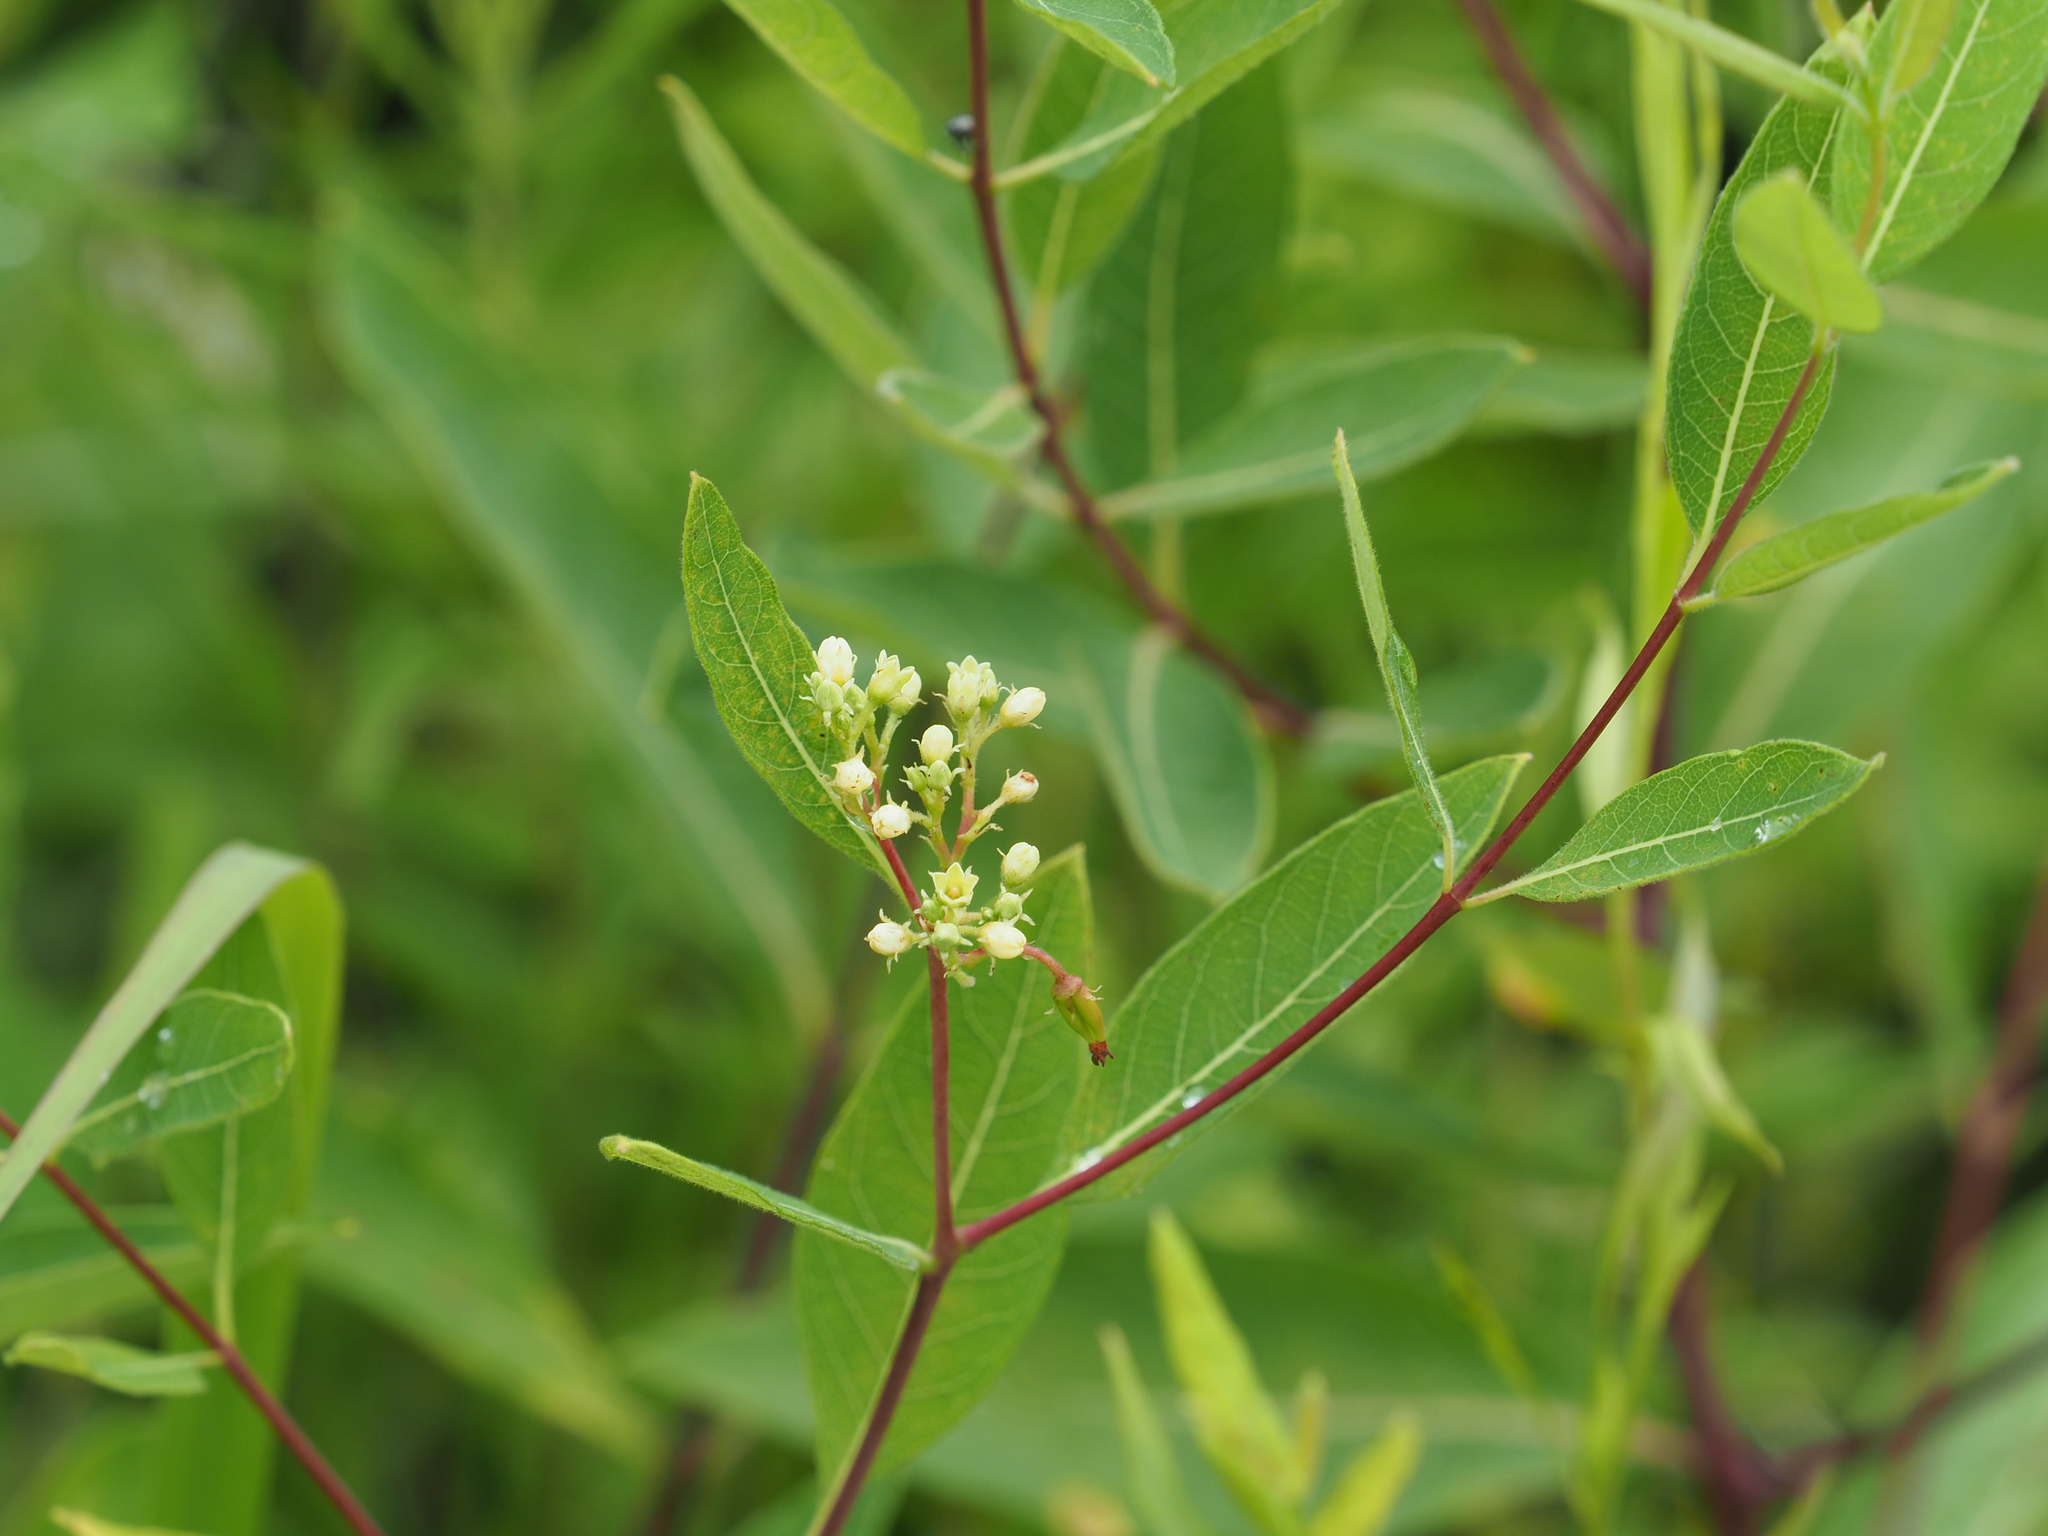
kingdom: Plantae
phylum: Tracheophyta
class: Magnoliopsida
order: Gentianales
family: Apocynaceae
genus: Apocynum
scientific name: Apocynum cannabinum
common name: Hemp dogbane
